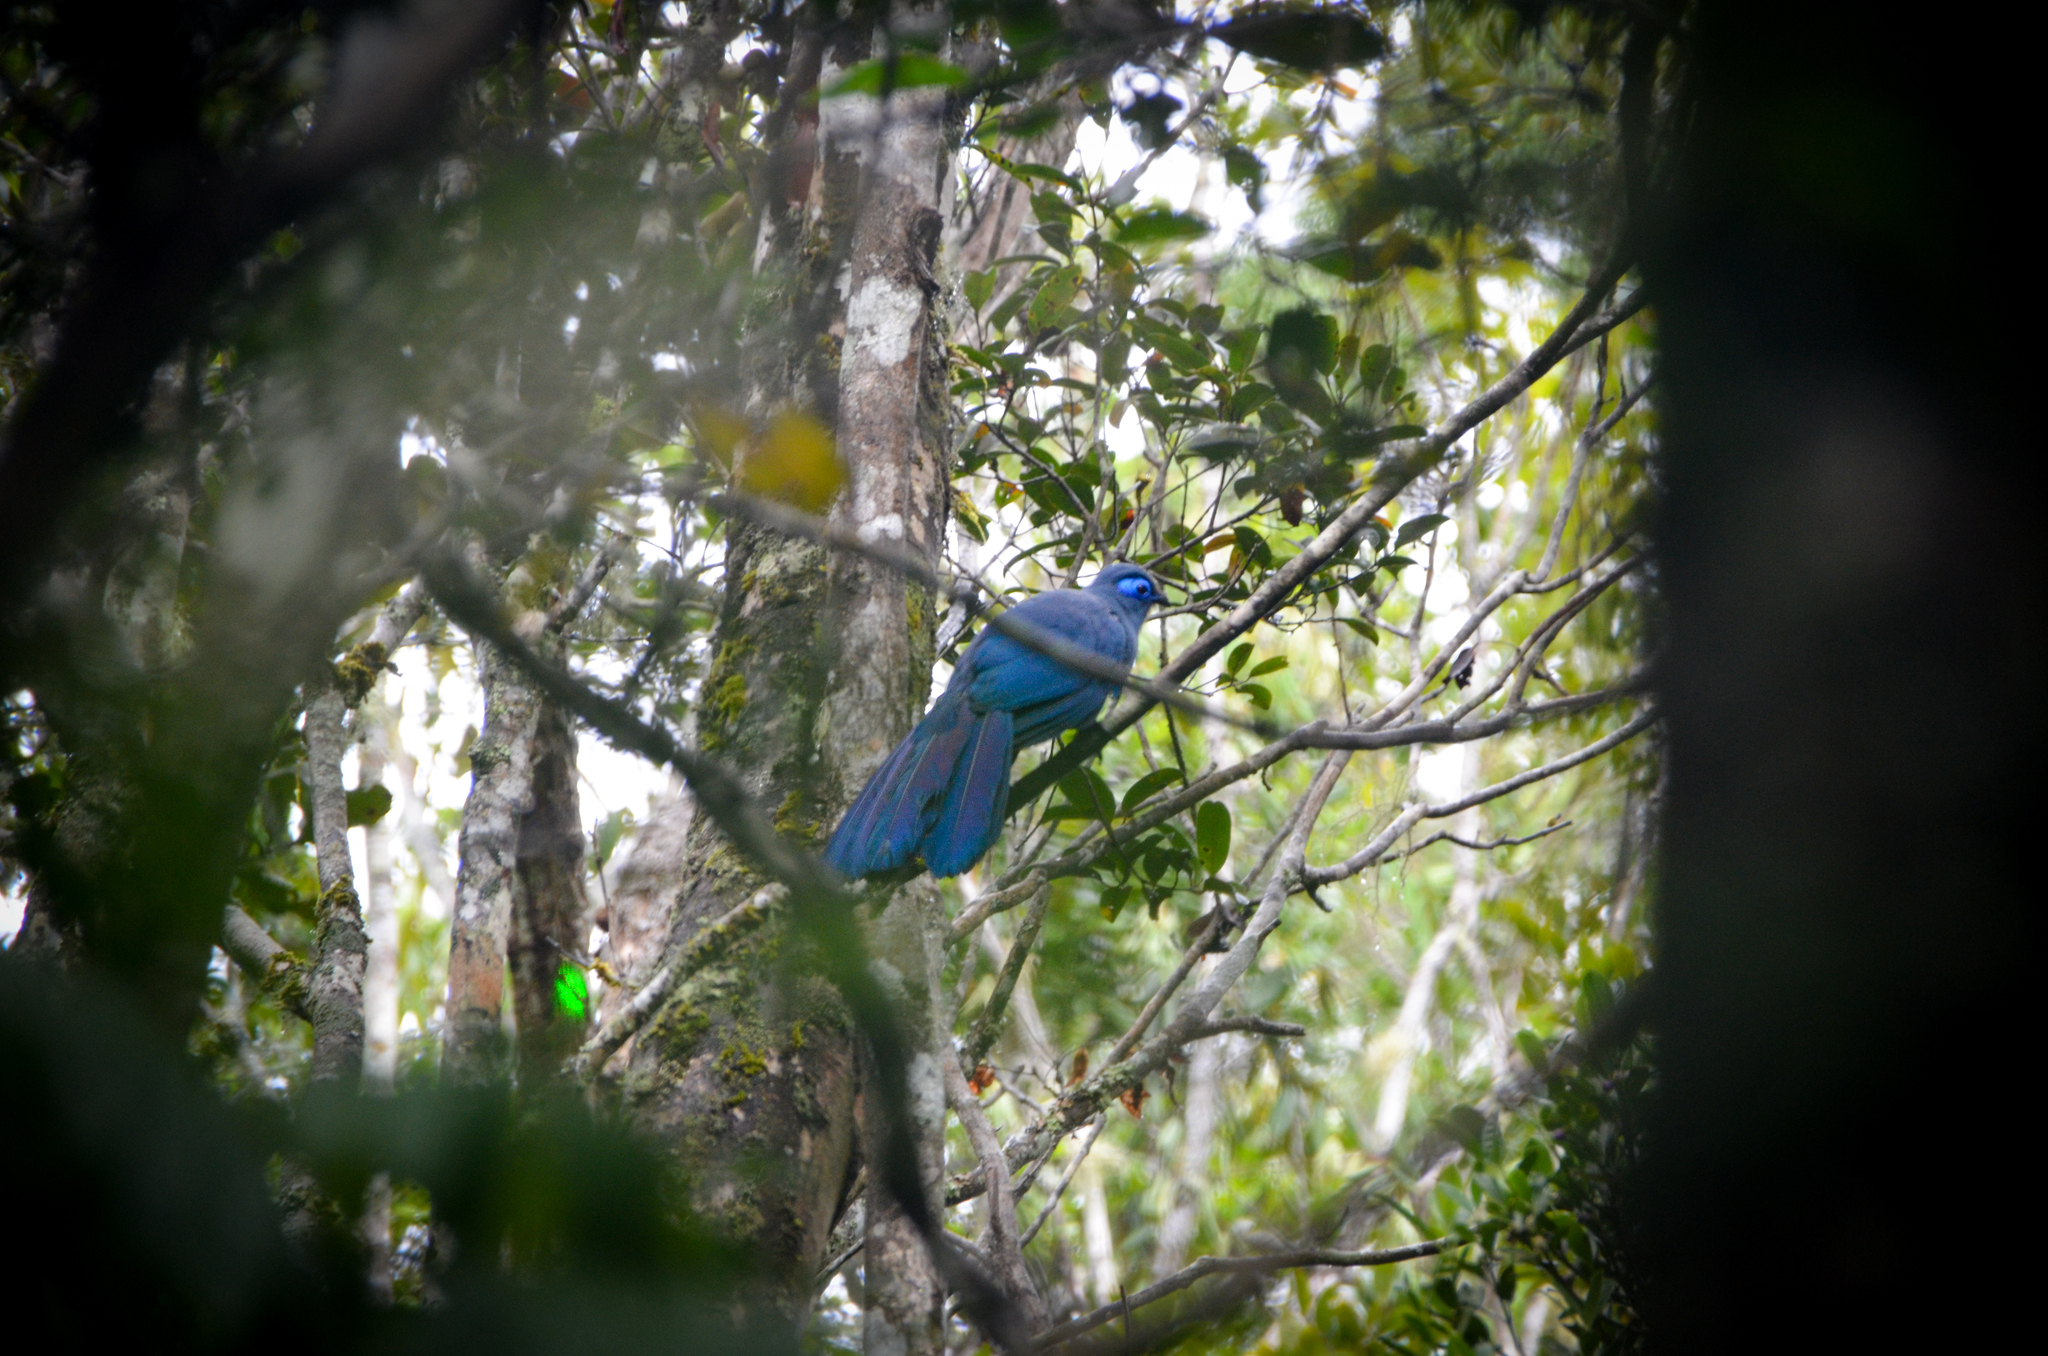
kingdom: Animalia
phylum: Chordata
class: Aves
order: Cuculiformes
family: Cuculidae
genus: Coua
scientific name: Coua caerulea
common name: Blue coua
